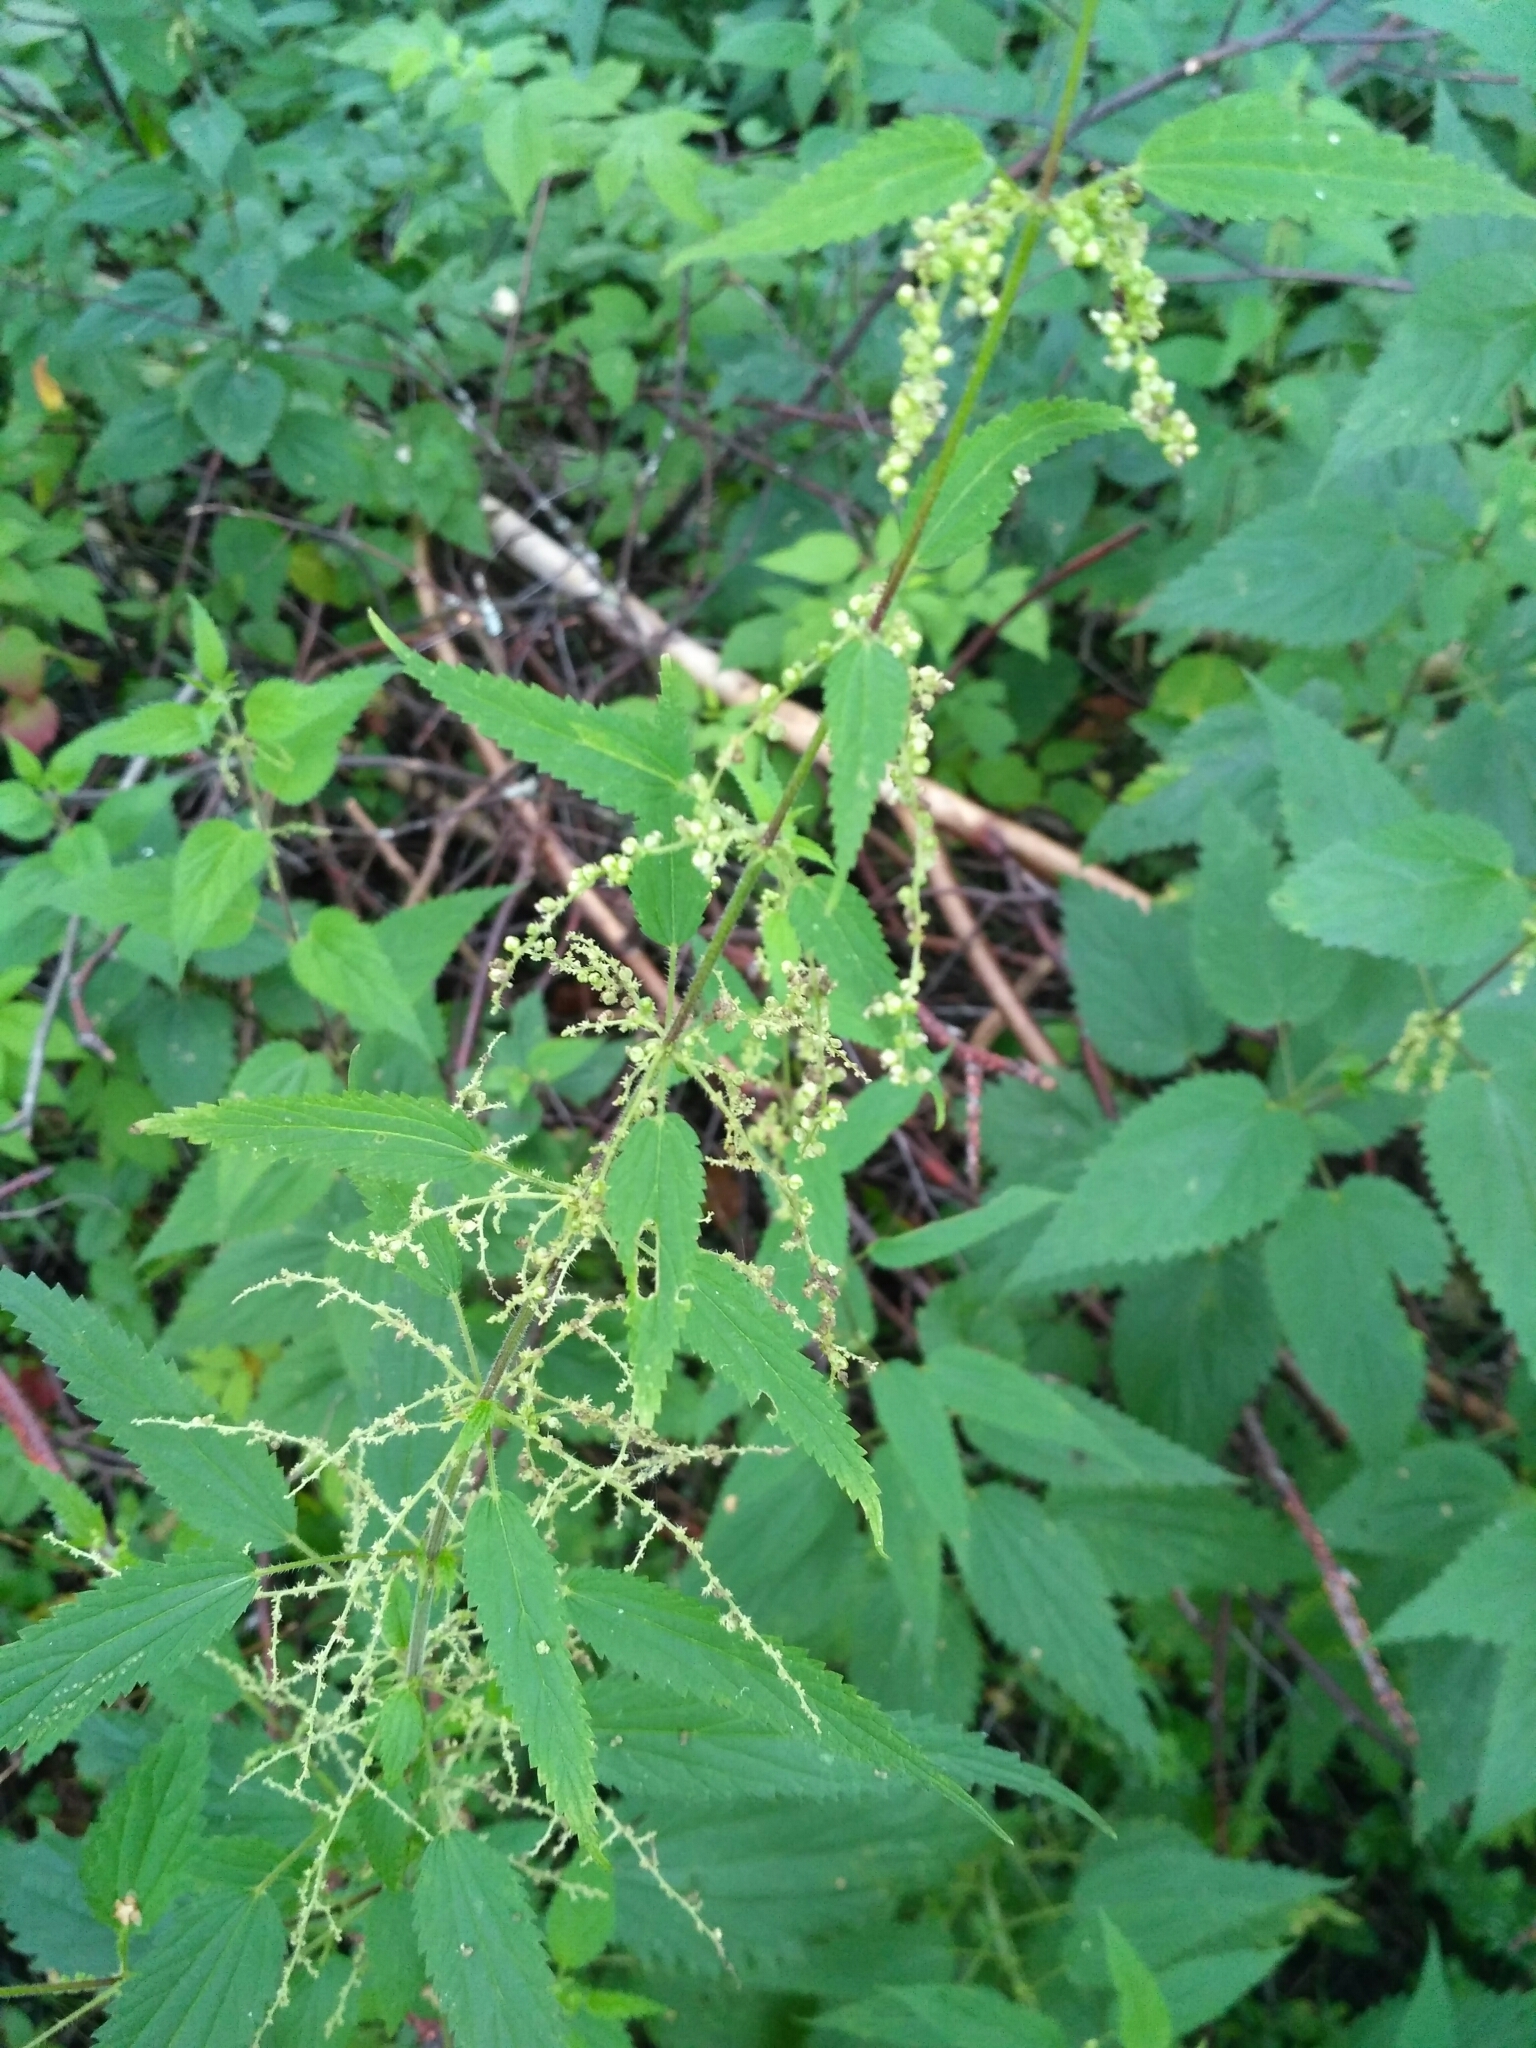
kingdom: Plantae
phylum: Tracheophyta
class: Magnoliopsida
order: Rosales
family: Urticaceae
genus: Urtica
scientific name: Urtica dioica
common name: Common nettle
